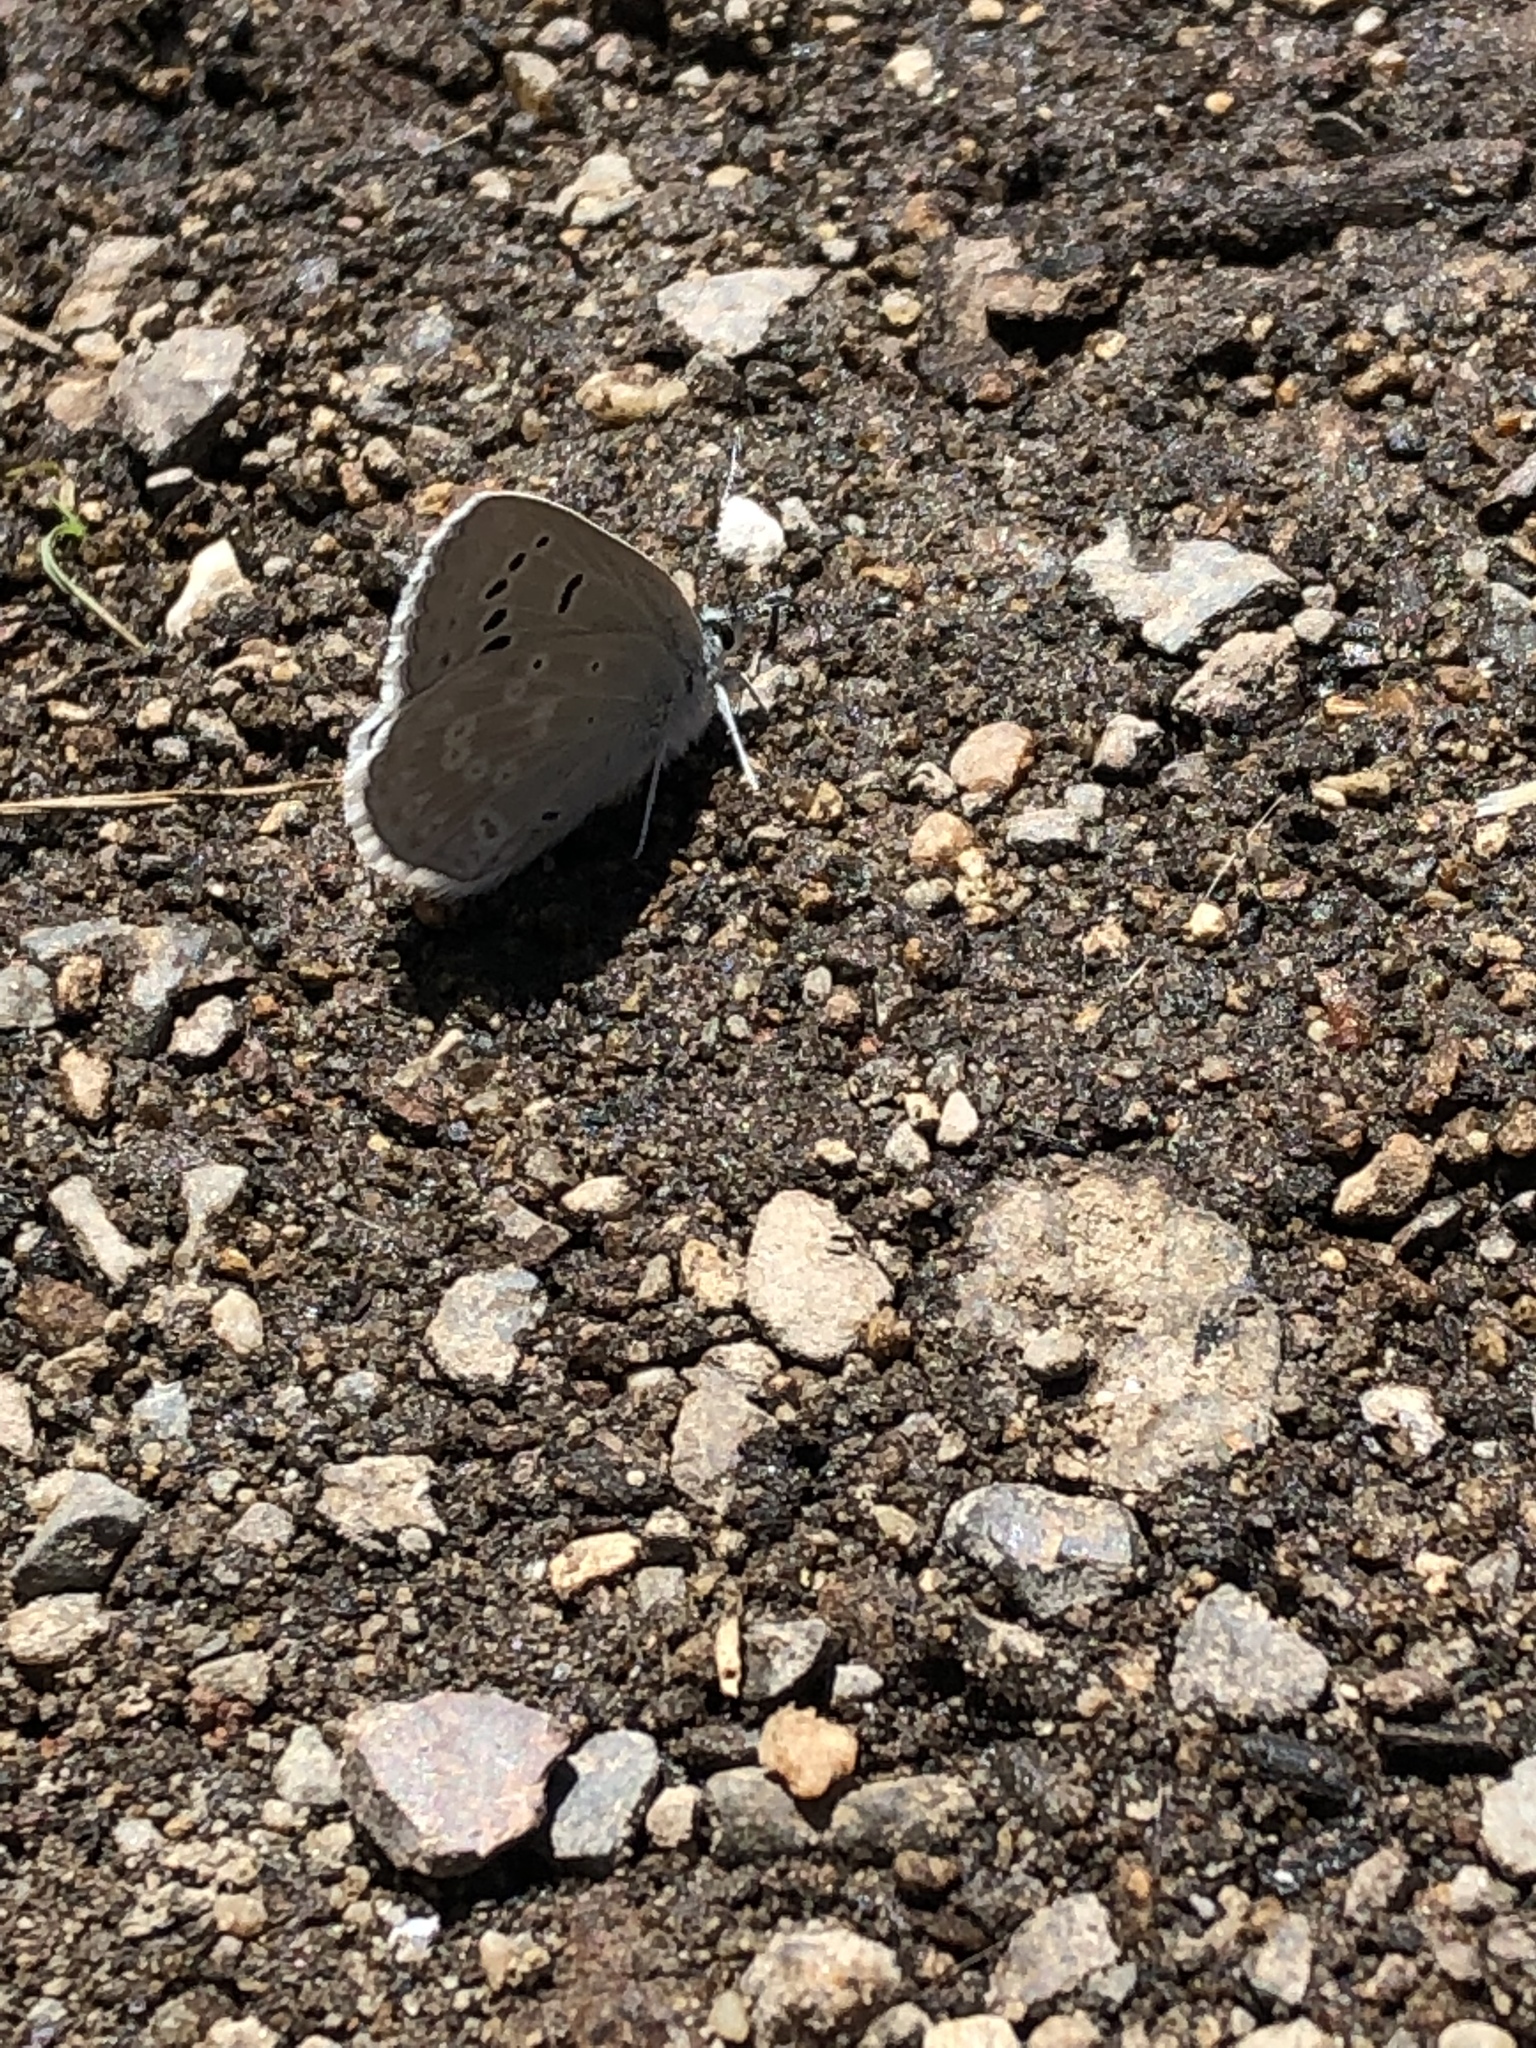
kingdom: Animalia
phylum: Arthropoda
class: Insecta
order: Lepidoptera
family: Lycaenidae
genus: Icaricia
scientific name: Icaricia icarioides
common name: Boisduval's blue
